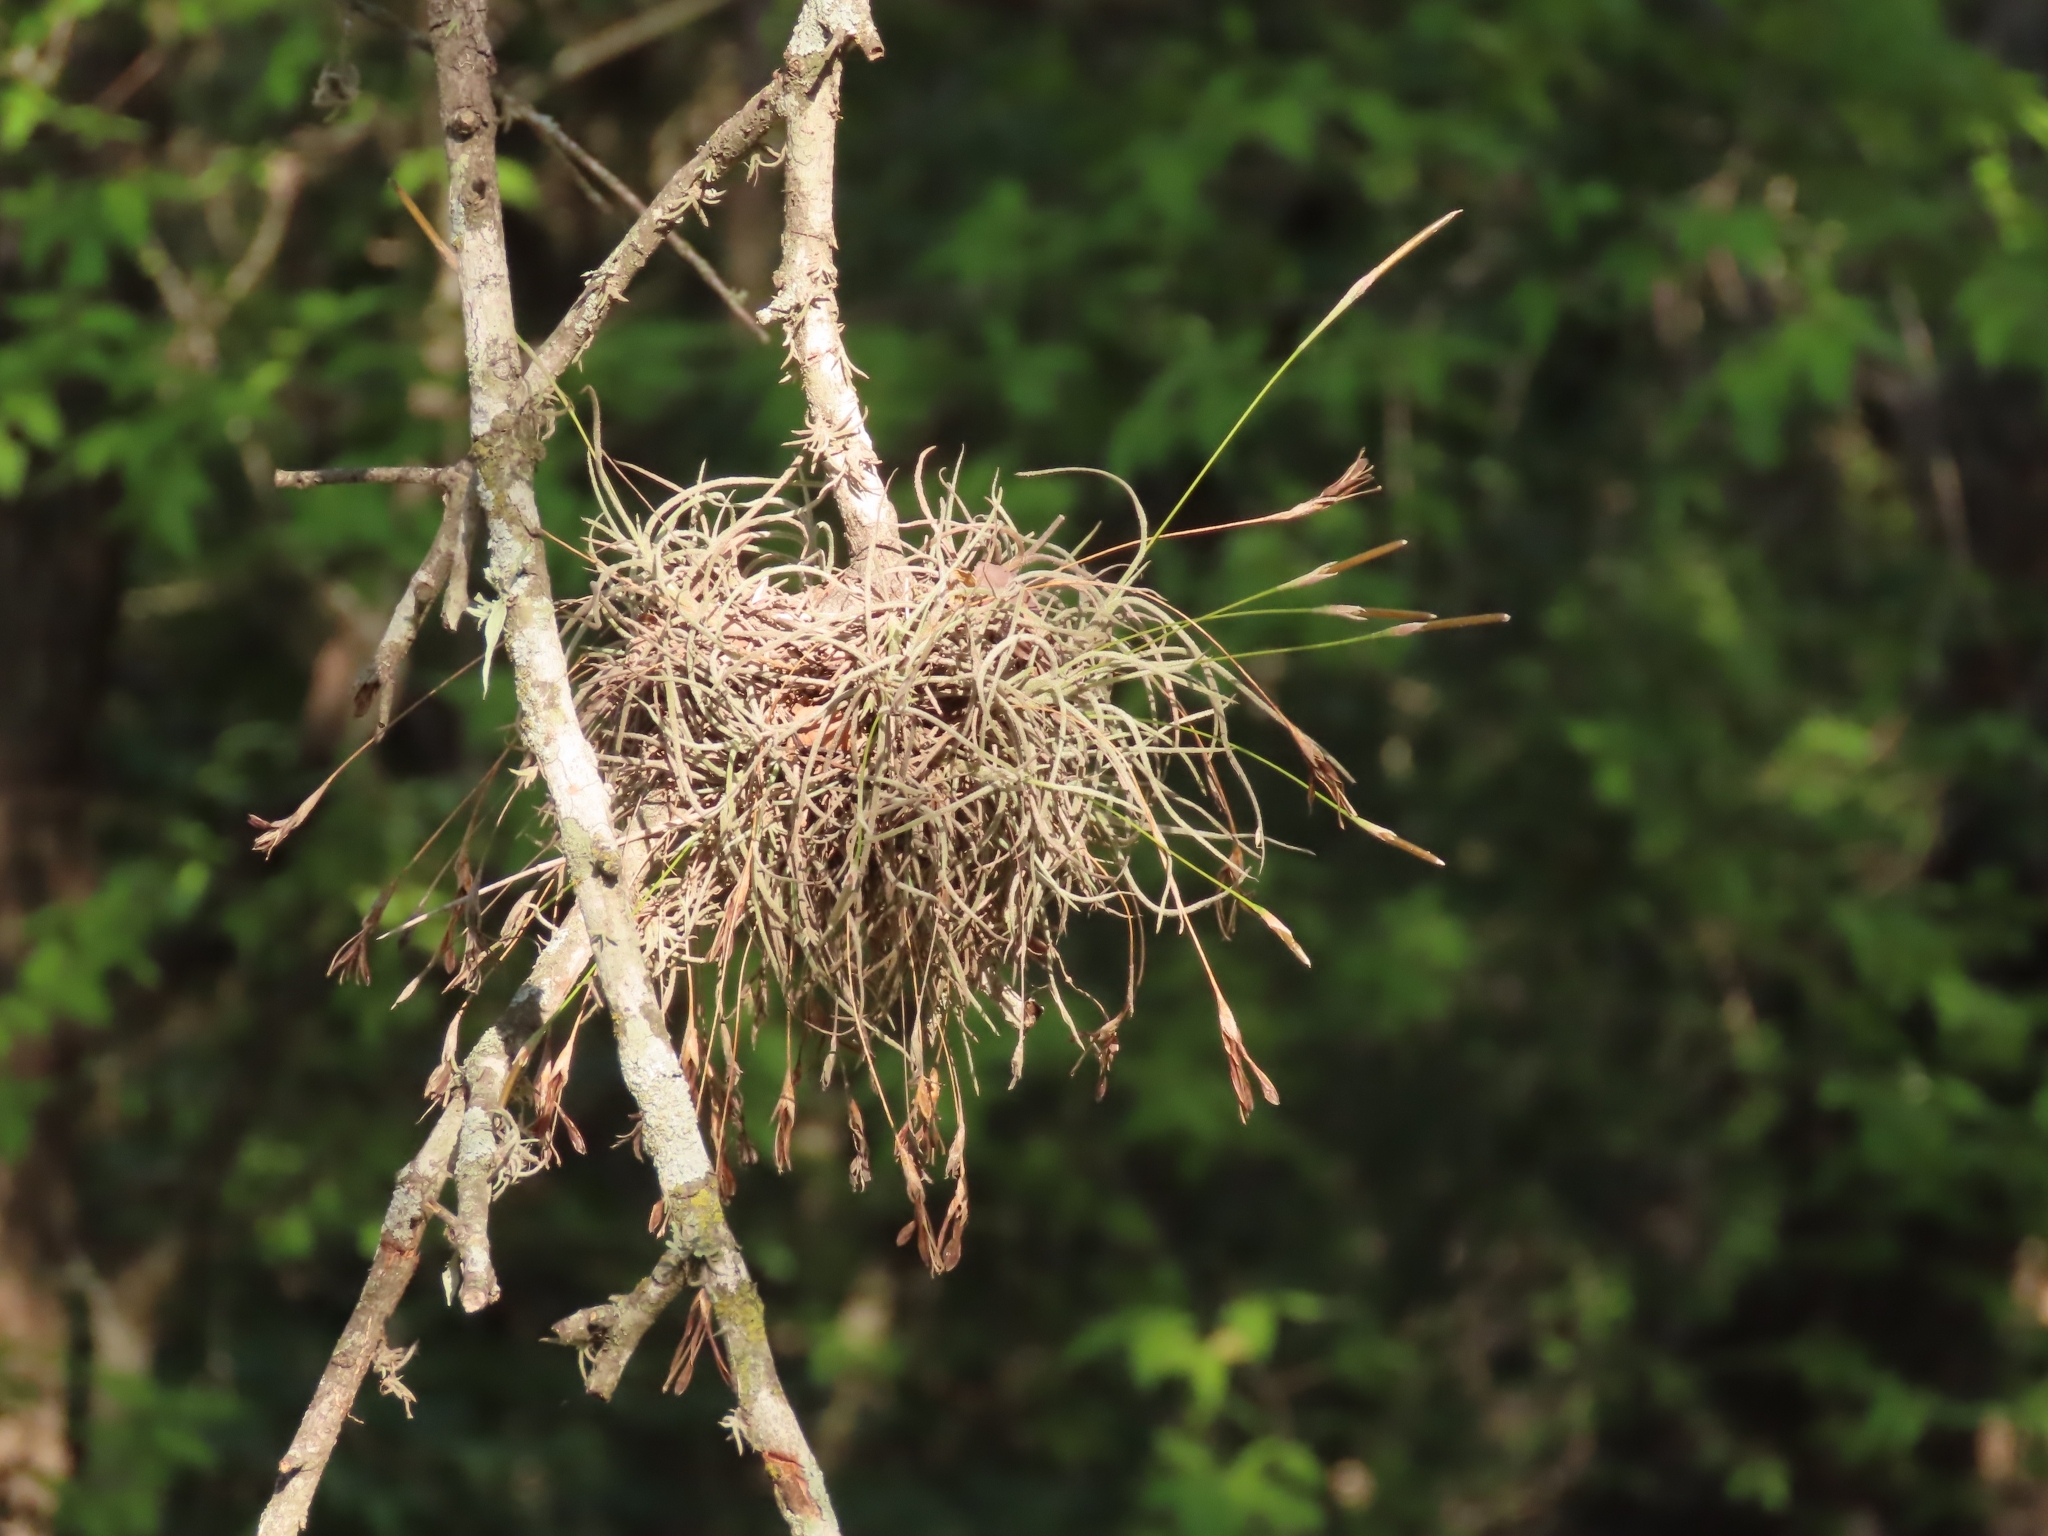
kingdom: Plantae
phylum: Tracheophyta
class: Liliopsida
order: Poales
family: Bromeliaceae
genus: Tillandsia
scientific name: Tillandsia recurvata
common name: Small ballmoss
